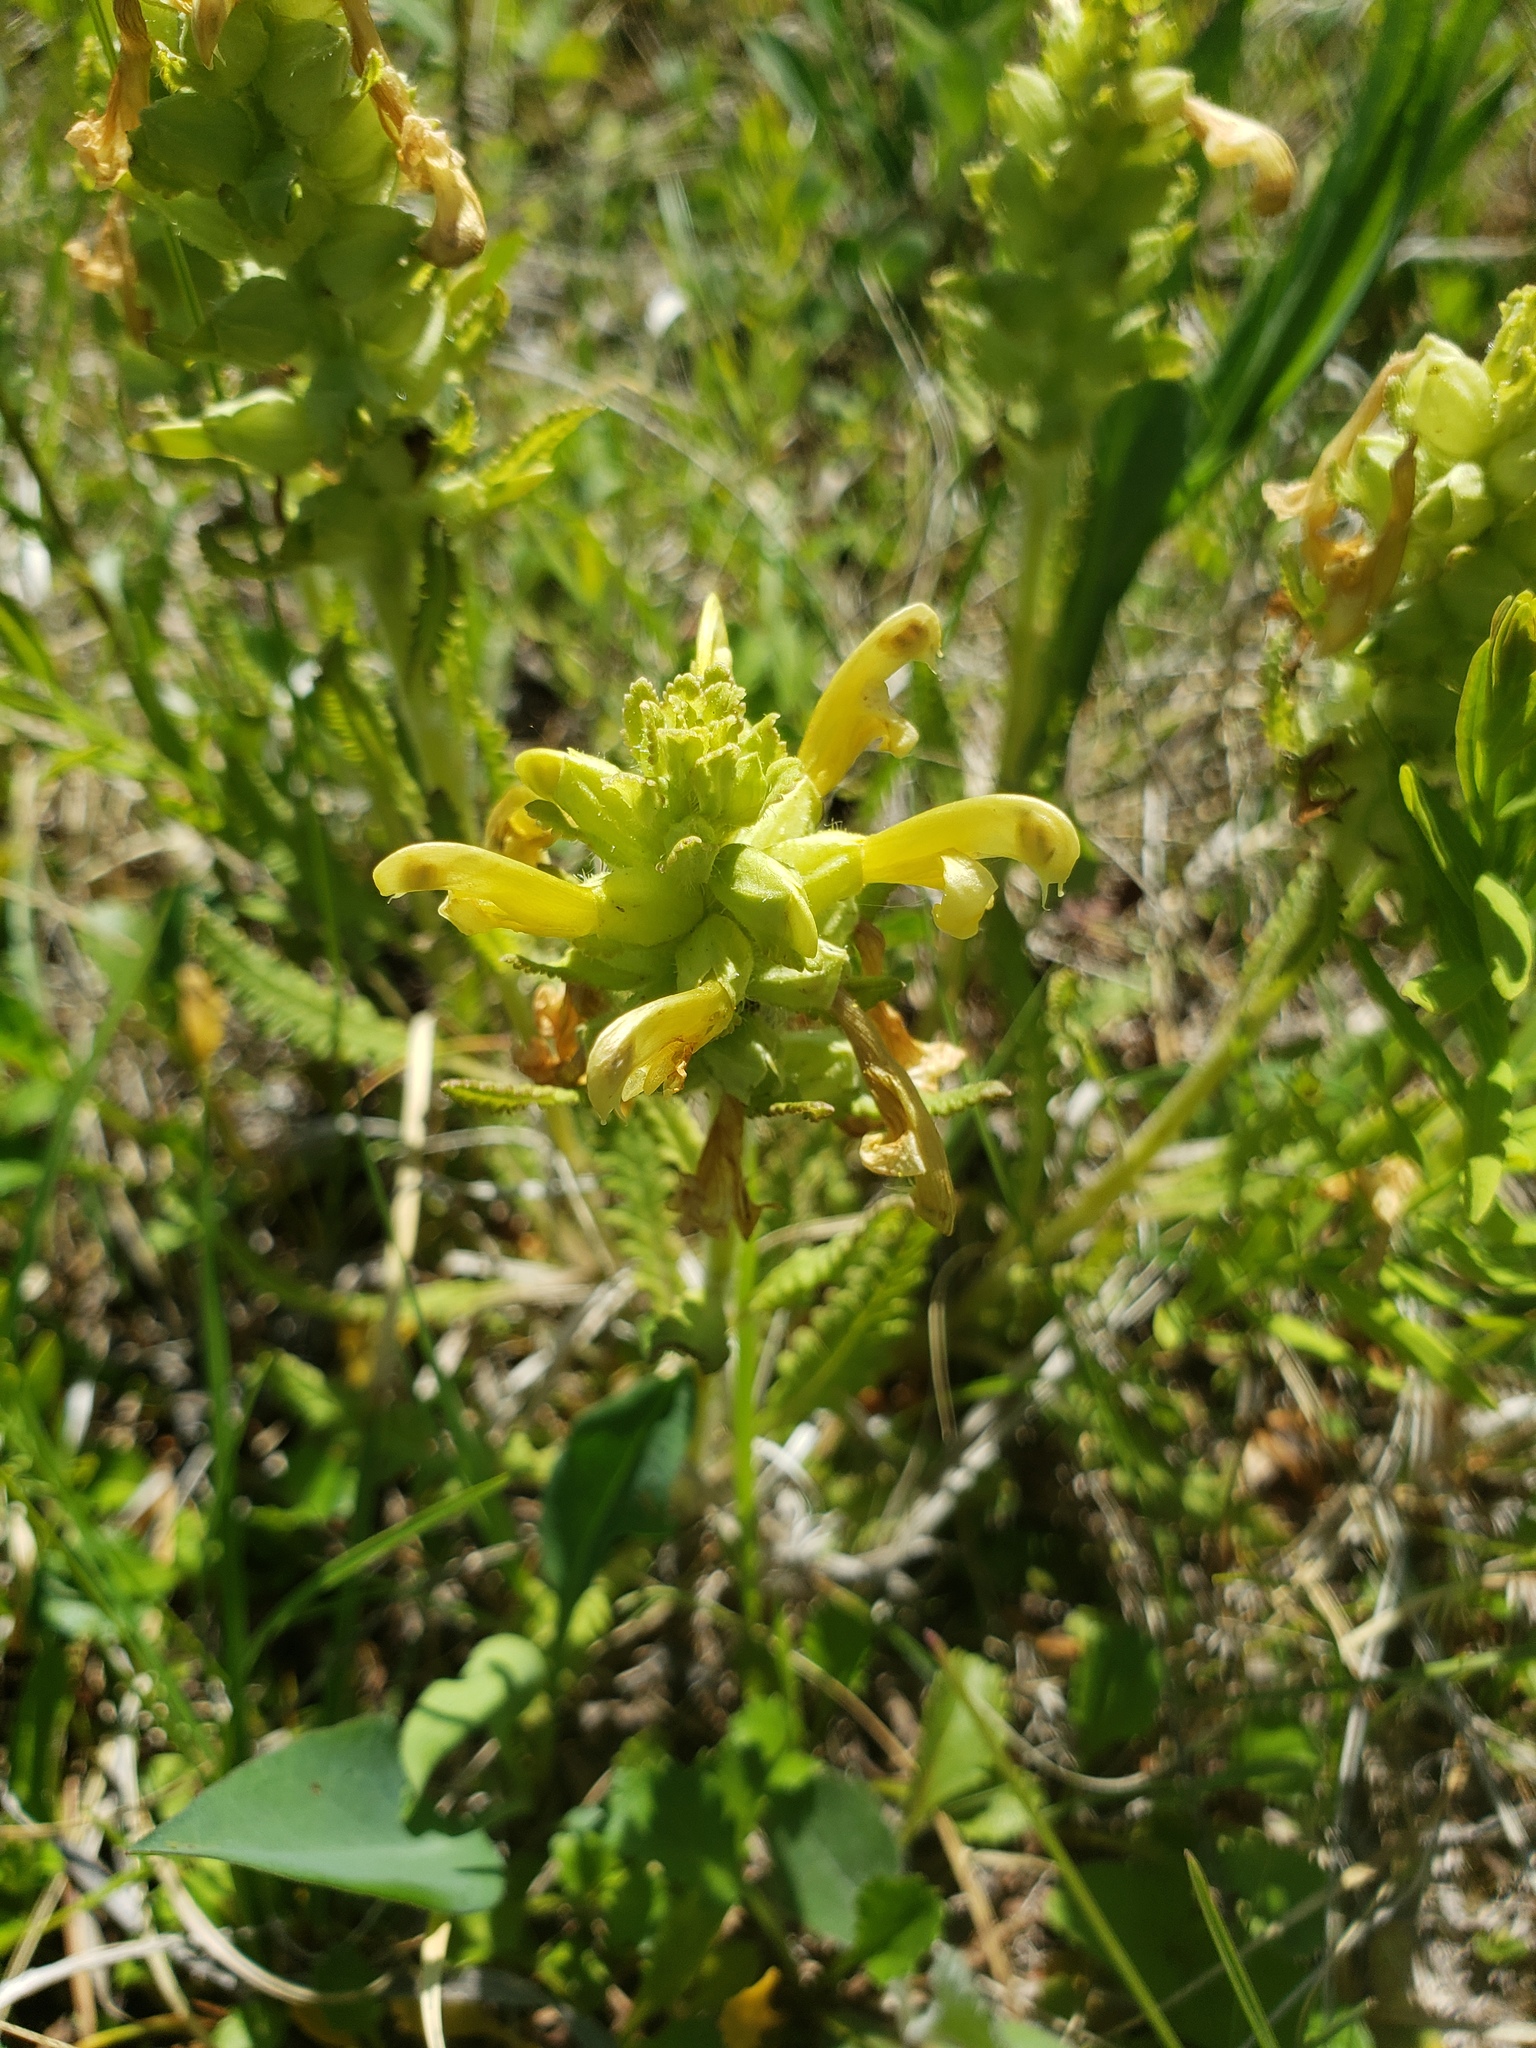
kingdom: Plantae
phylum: Tracheophyta
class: Magnoliopsida
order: Lamiales
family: Orobanchaceae
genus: Pedicularis
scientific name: Pedicularis canadensis
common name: Early lousewort
